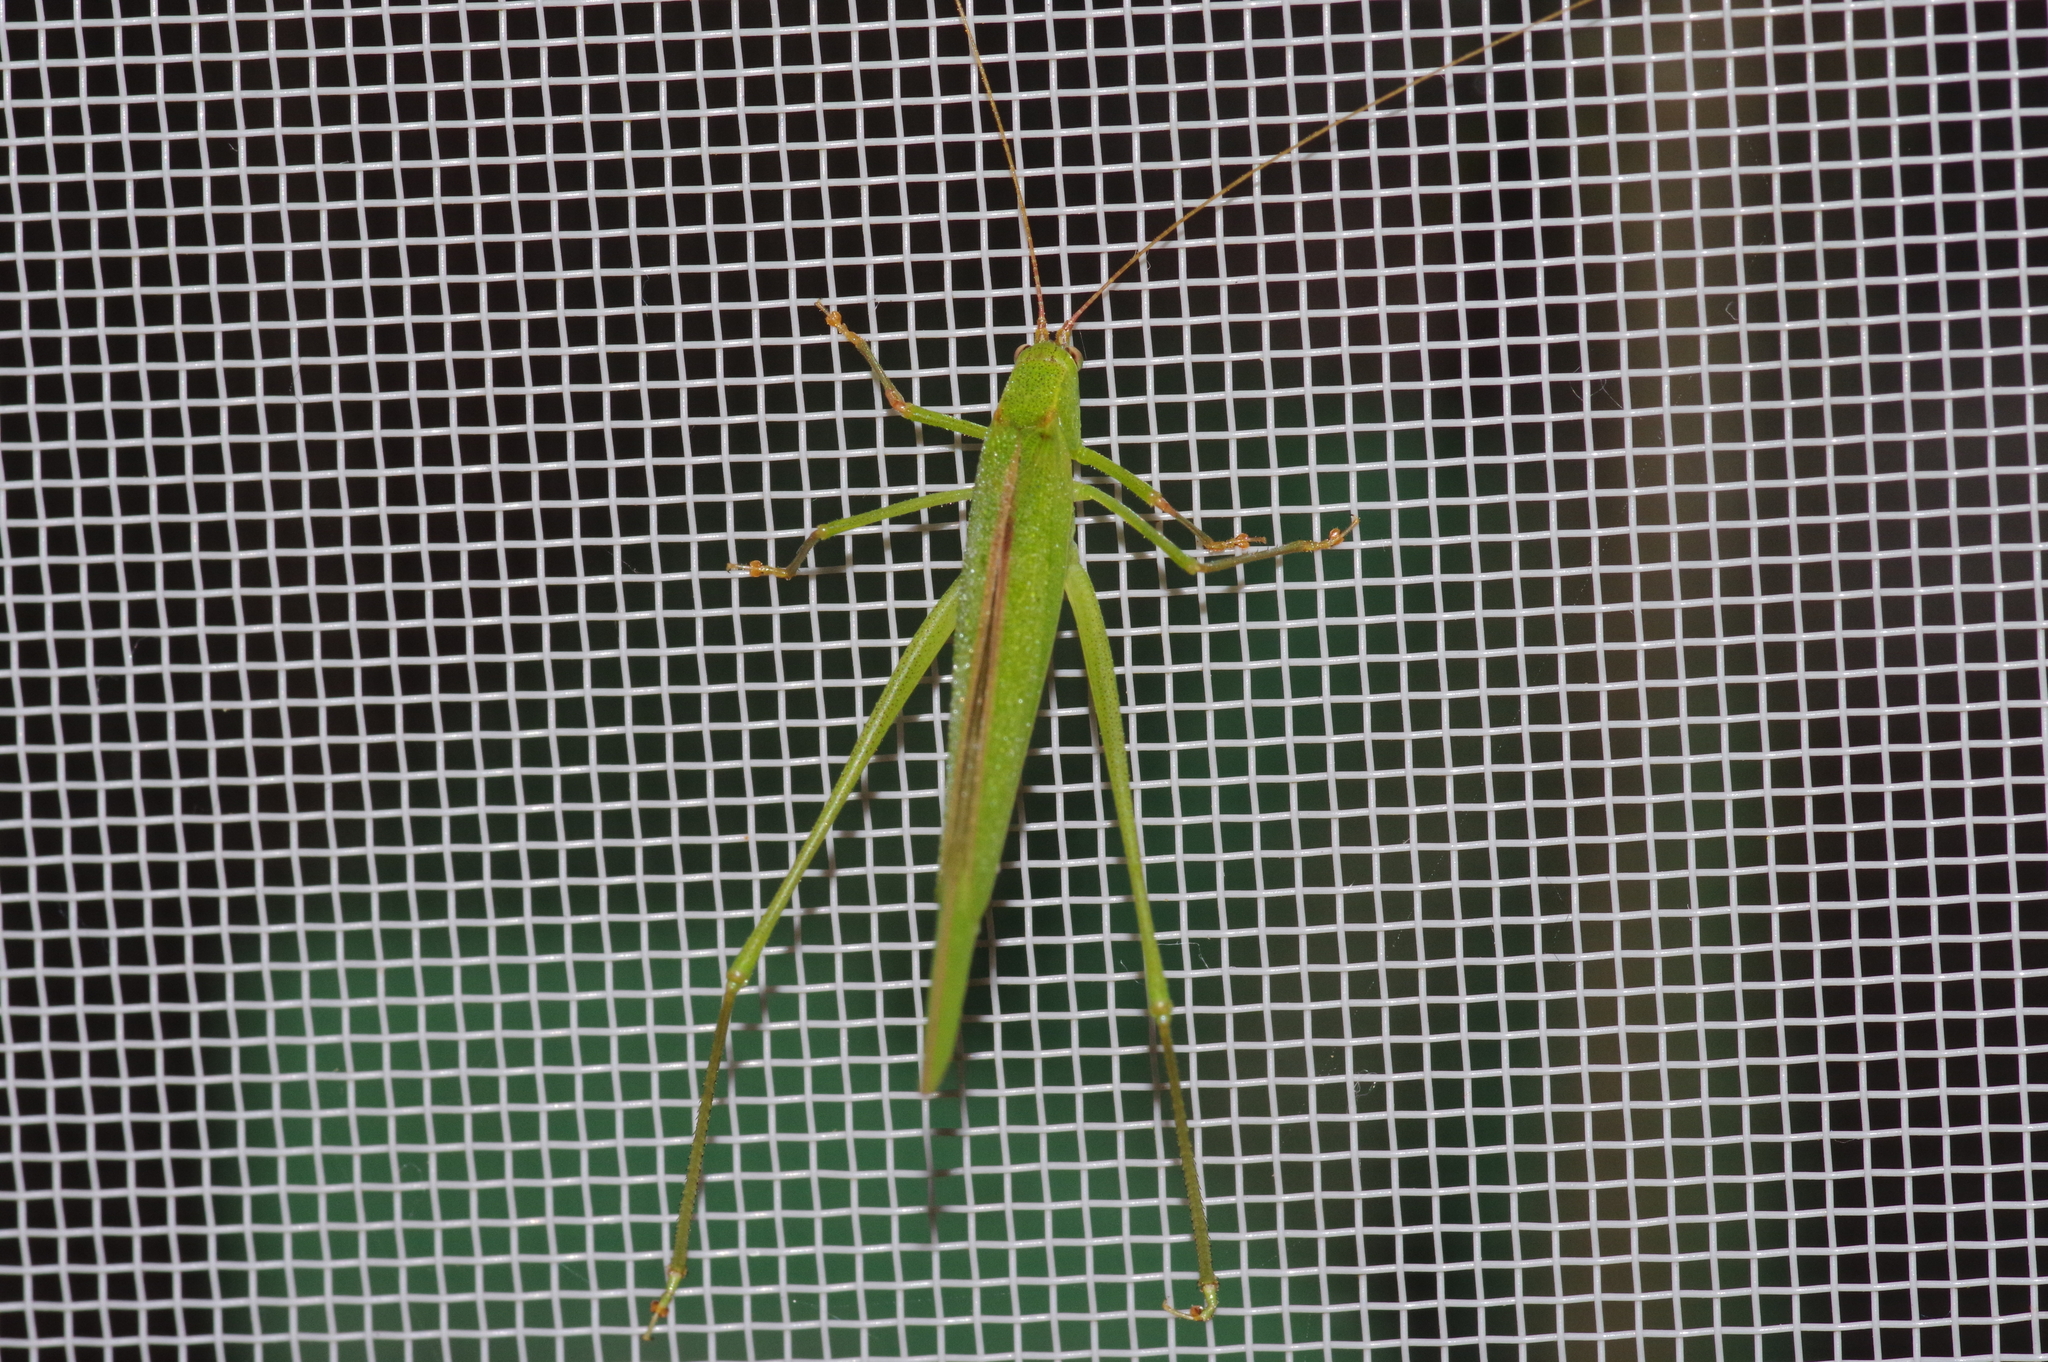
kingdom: Animalia
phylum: Arthropoda
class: Insecta
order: Orthoptera
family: Tettigoniidae
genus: Phaneroptera
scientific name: Phaneroptera gracilis
